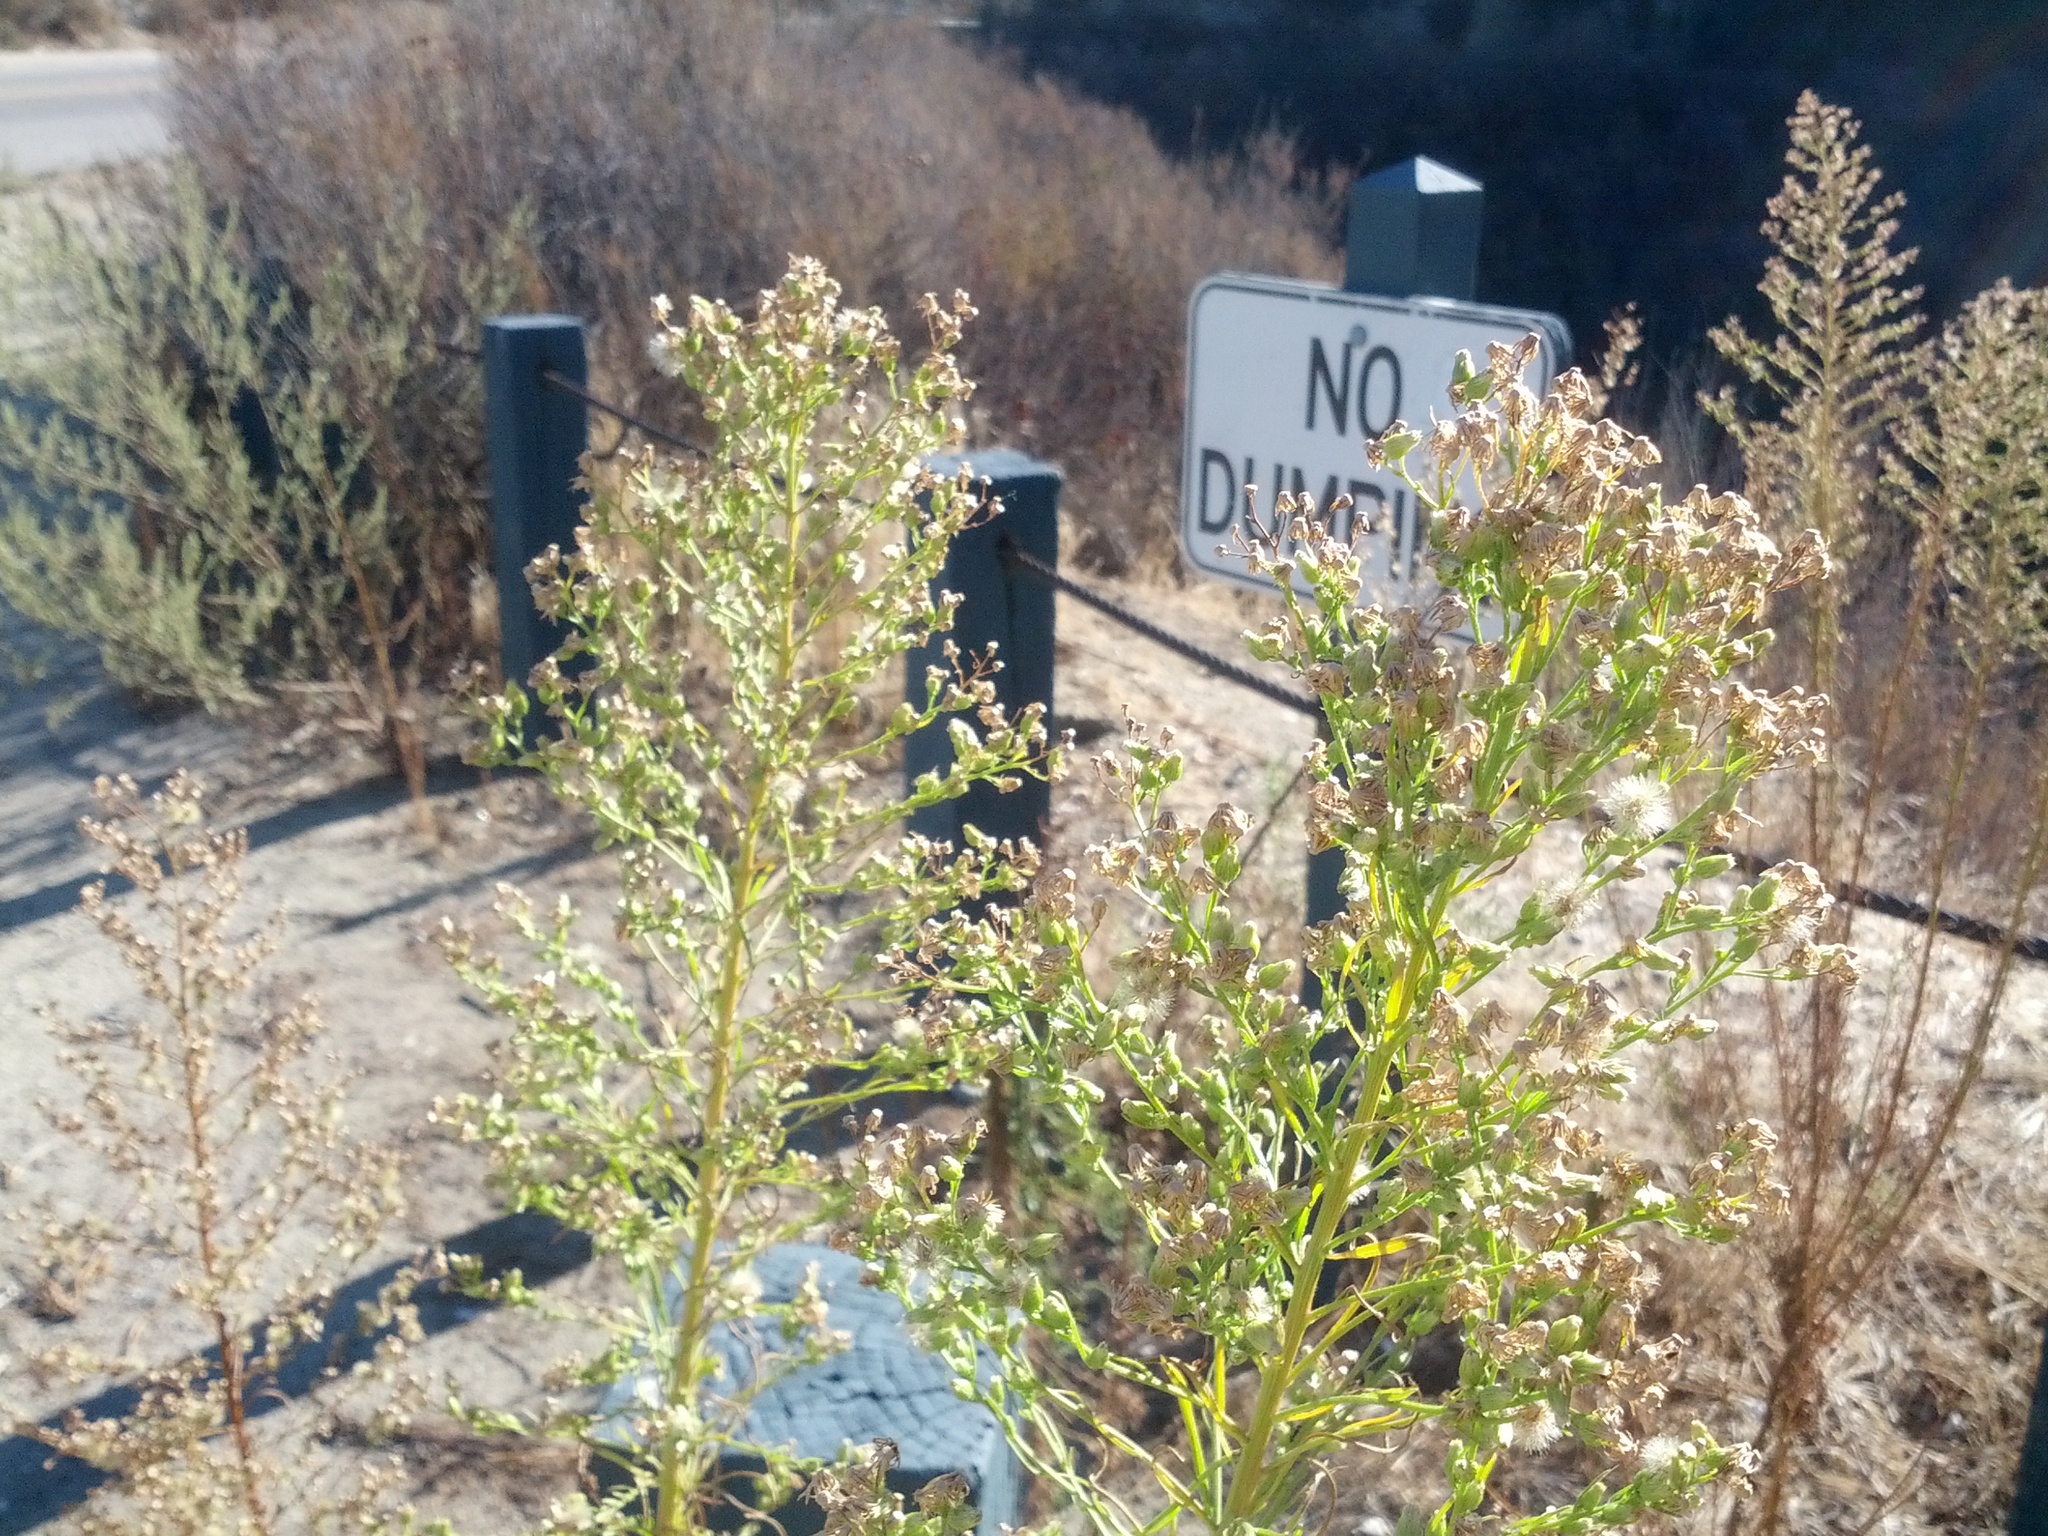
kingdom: Plantae
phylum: Tracheophyta
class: Magnoliopsida
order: Asterales
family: Asteraceae
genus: Erigeron
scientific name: Erigeron canadensis
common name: Canadian fleabane
